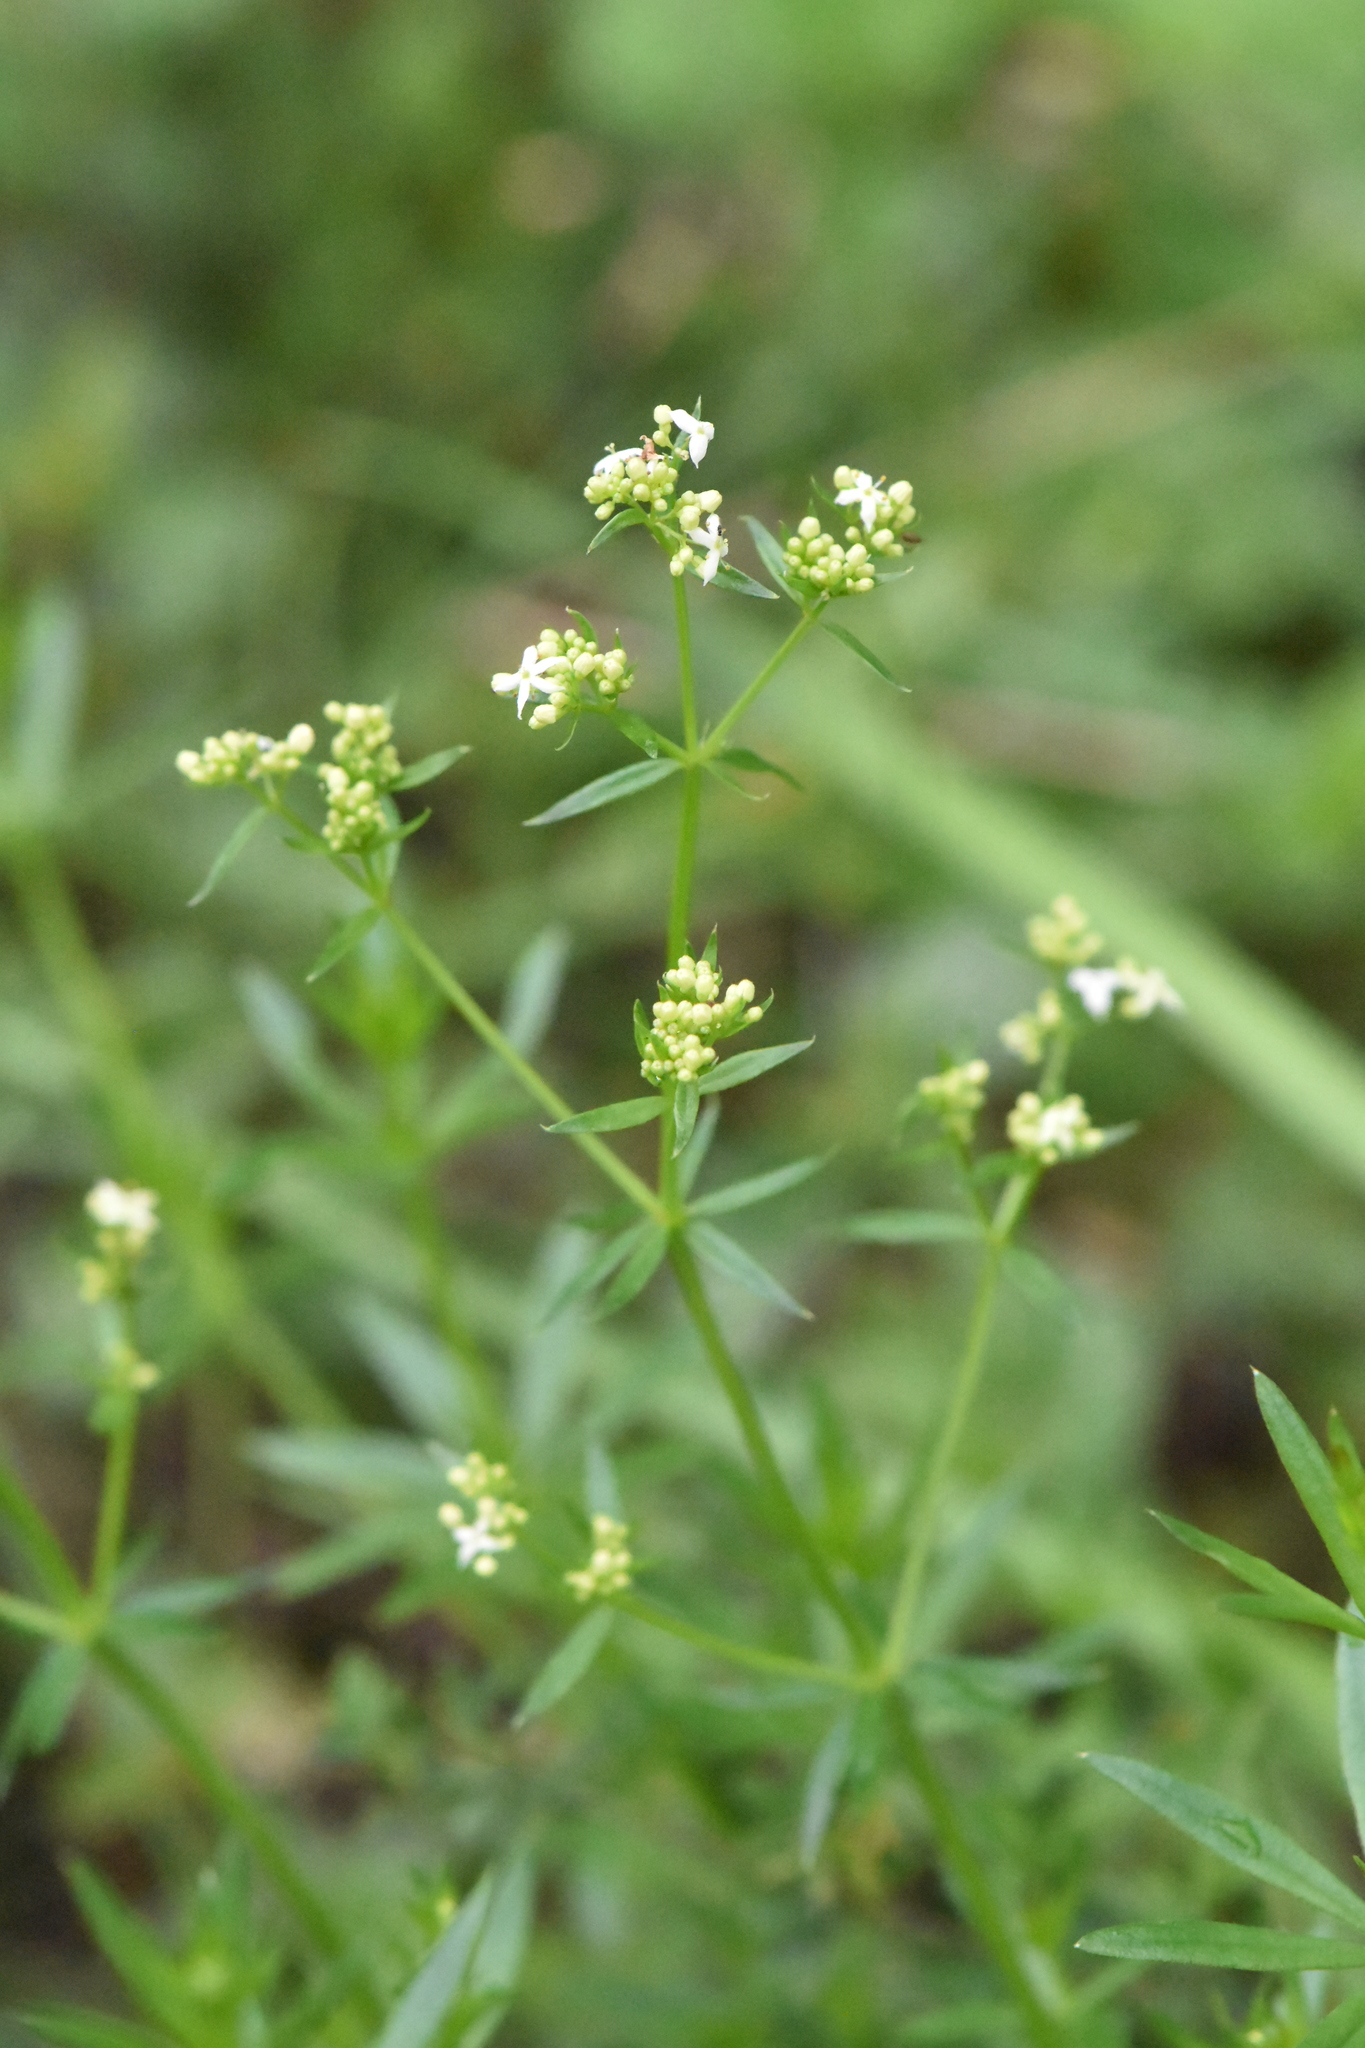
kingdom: Plantae
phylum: Tracheophyta
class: Magnoliopsida
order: Gentianales
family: Rubiaceae
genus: Galium
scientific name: Galium mollugo
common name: Hedge bedstraw
